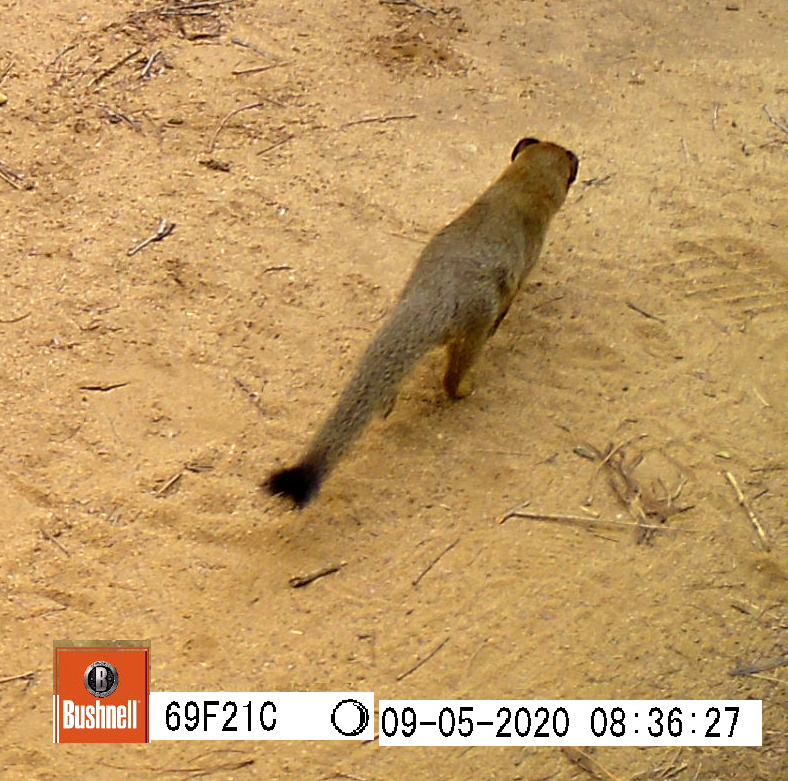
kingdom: Animalia
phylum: Chordata
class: Mammalia
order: Carnivora
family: Herpestidae
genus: Galerella
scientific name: Galerella sanguinea
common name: Slender mongoose
